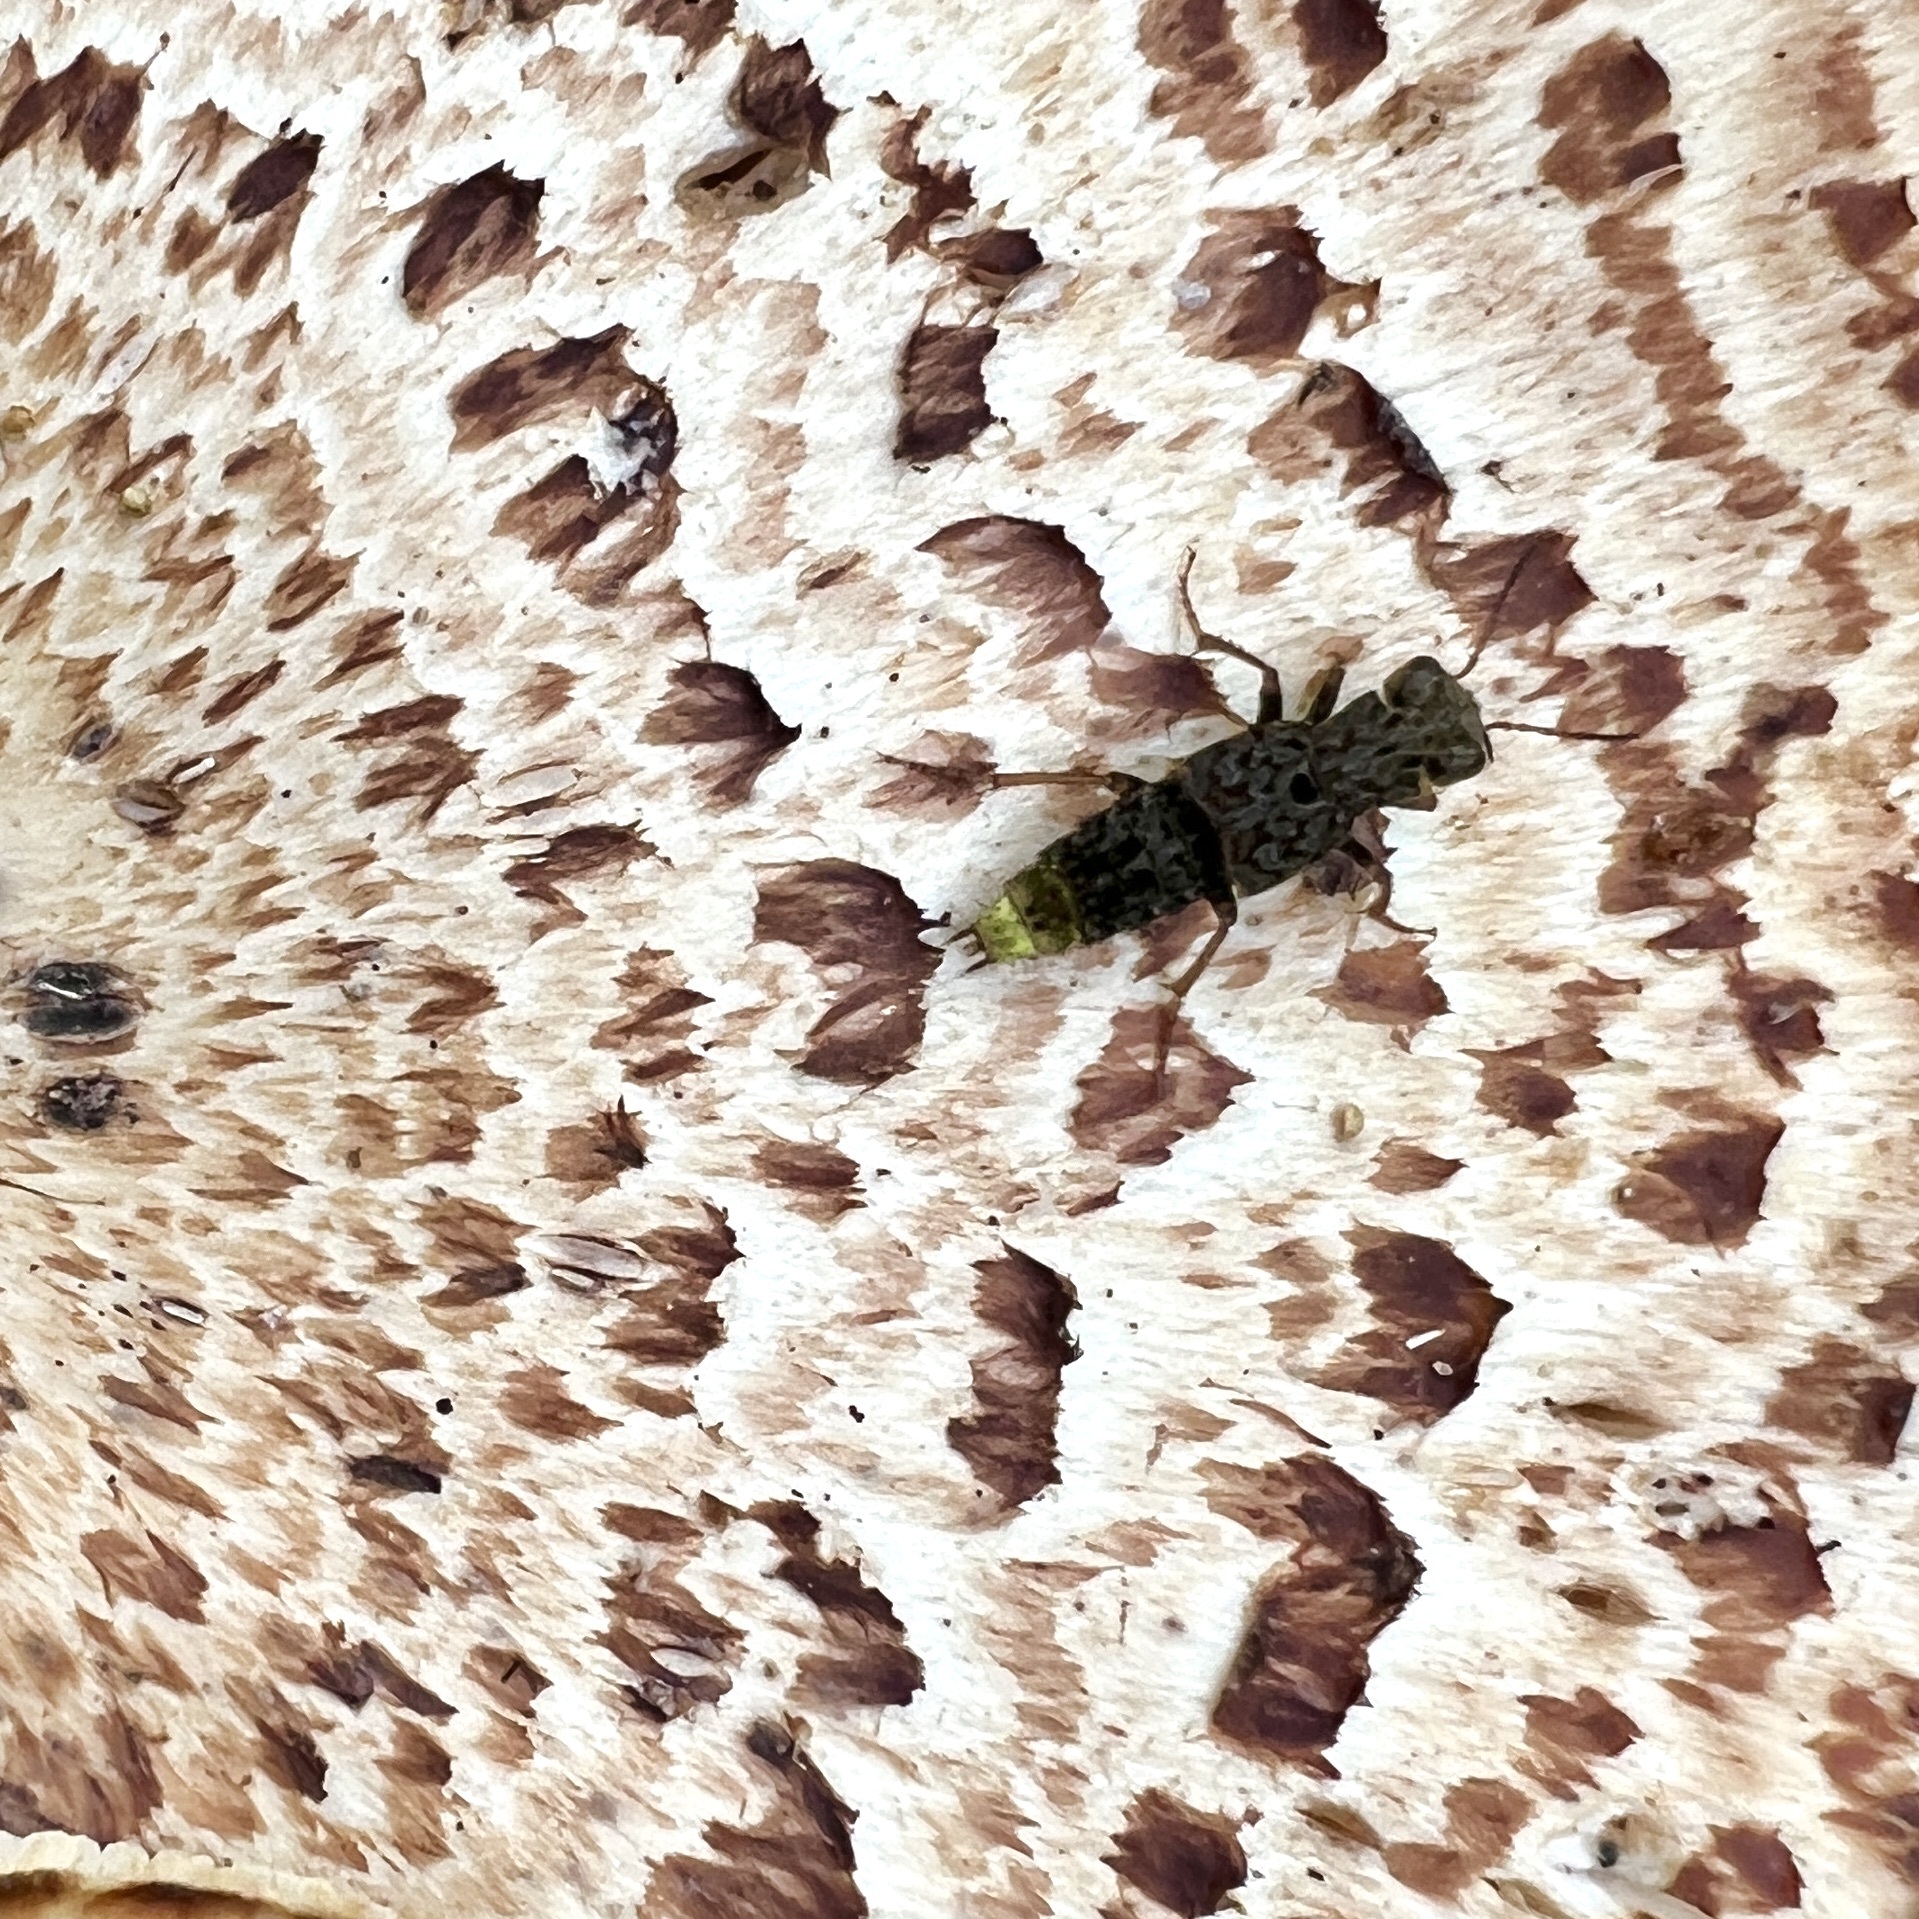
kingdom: Animalia
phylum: Arthropoda
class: Insecta
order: Coleoptera
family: Staphylinidae
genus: Ontholestes
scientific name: Ontholestes cingulatus
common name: Gold-and-brown rove beetle
